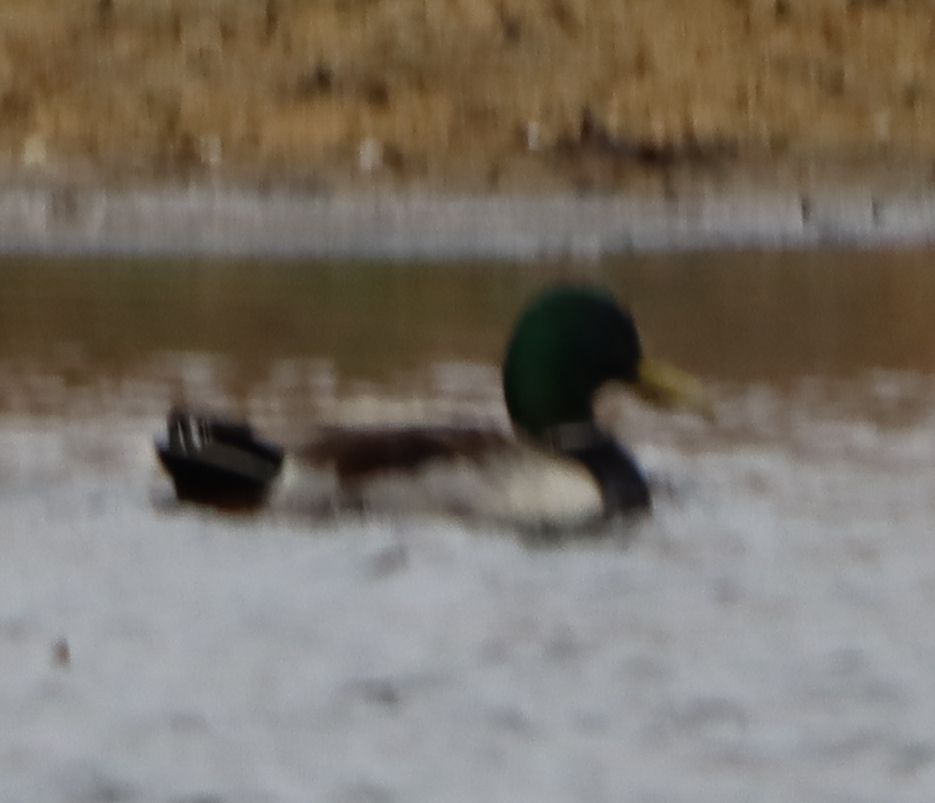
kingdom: Animalia
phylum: Chordata
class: Aves
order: Anseriformes
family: Anatidae
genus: Anas
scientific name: Anas platyrhynchos
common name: Mallard
